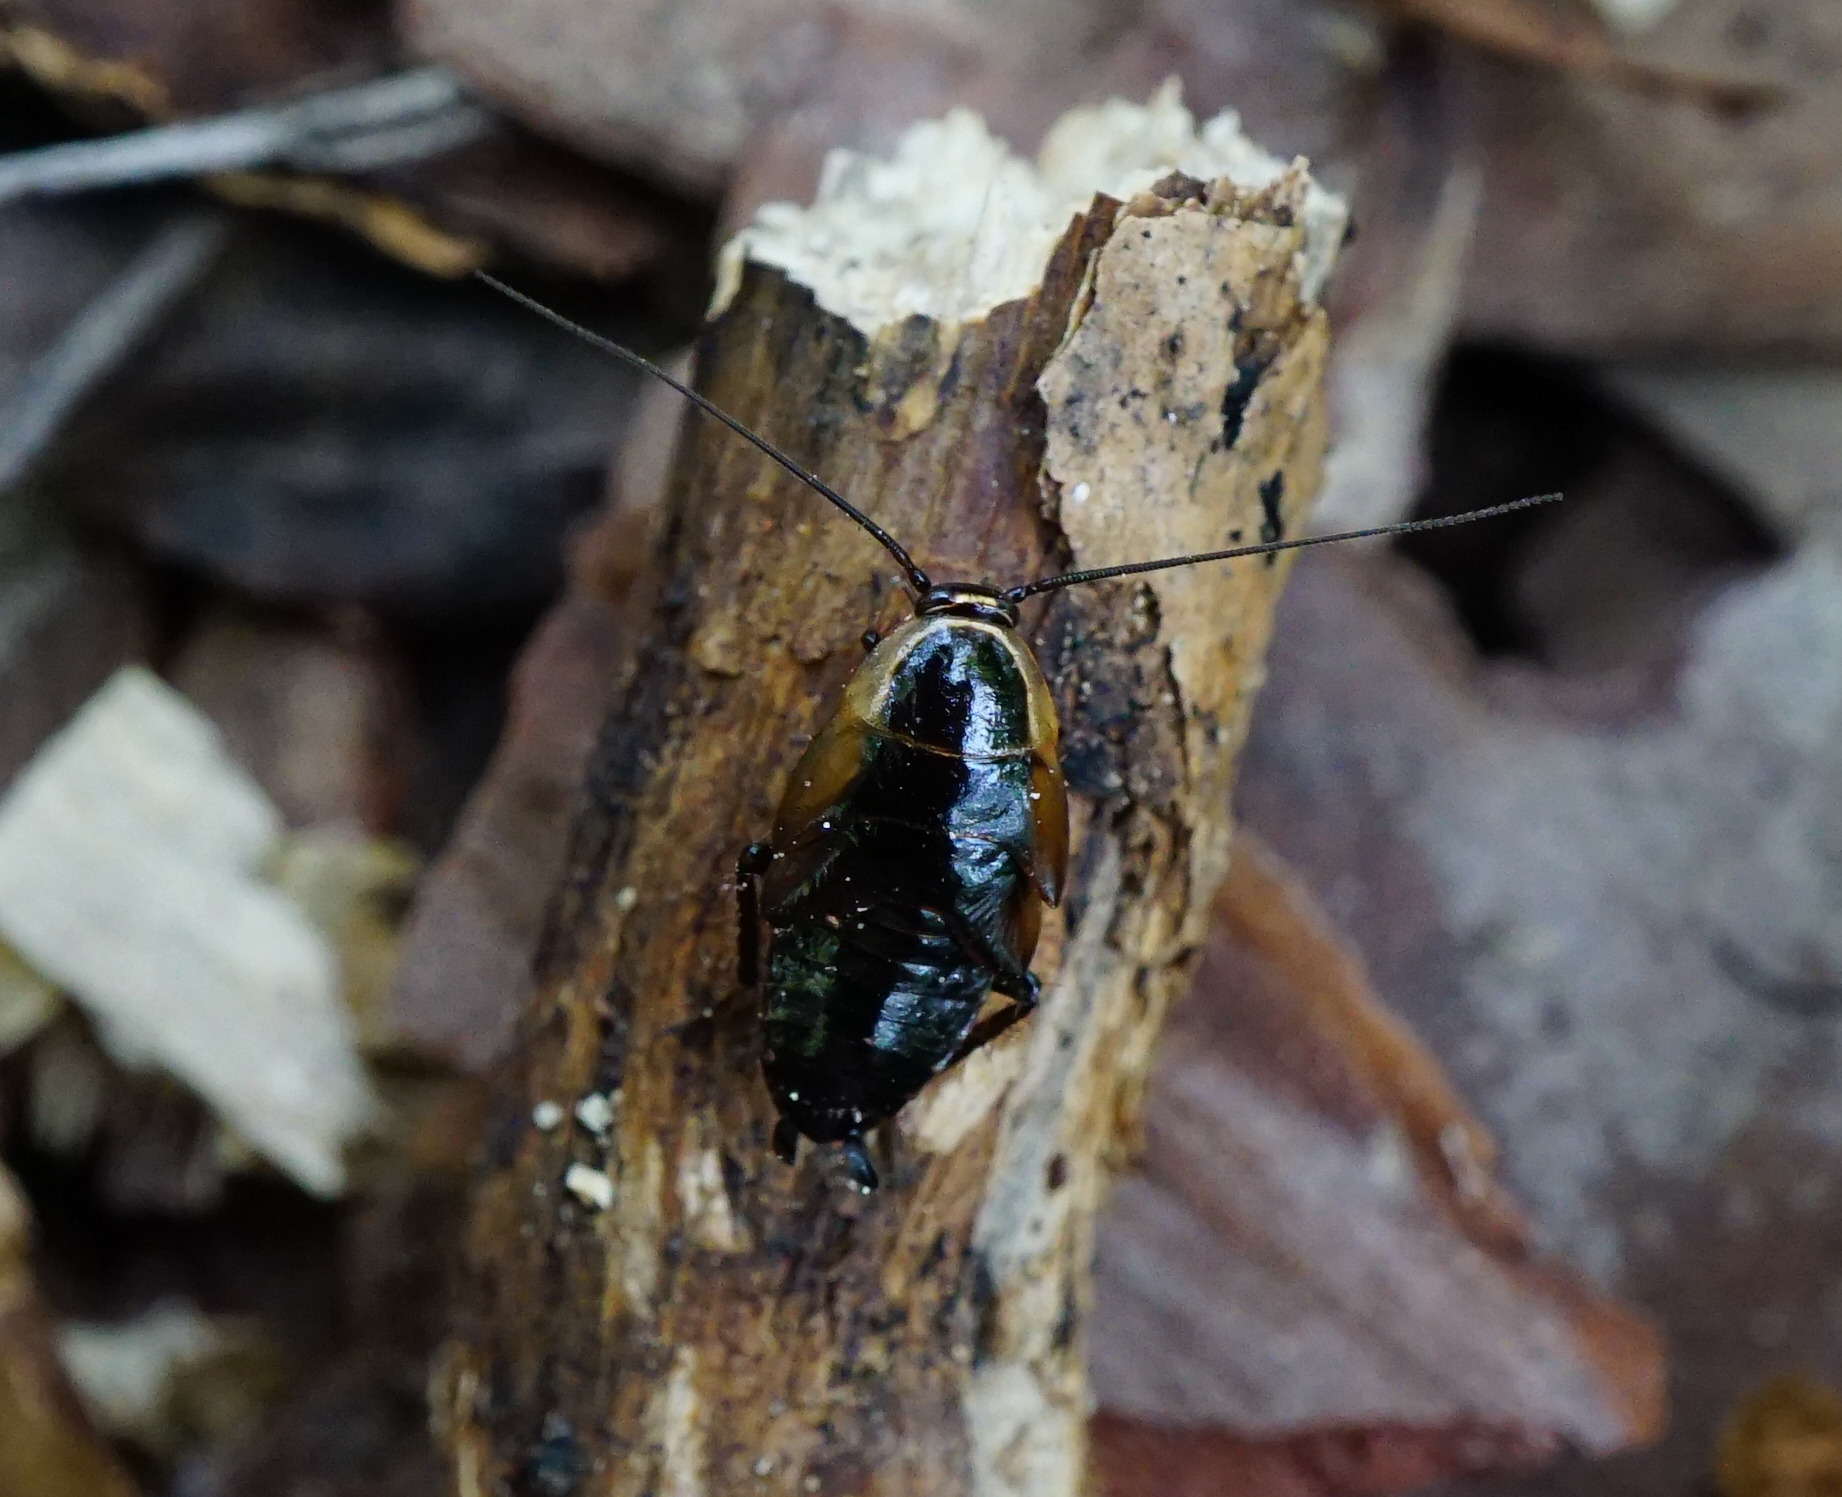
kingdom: Animalia
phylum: Arthropoda
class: Insecta
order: Blattodea
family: Ectobiidae
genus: Ectobius
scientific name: Ectobius sylvestris
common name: Forest cockroach
